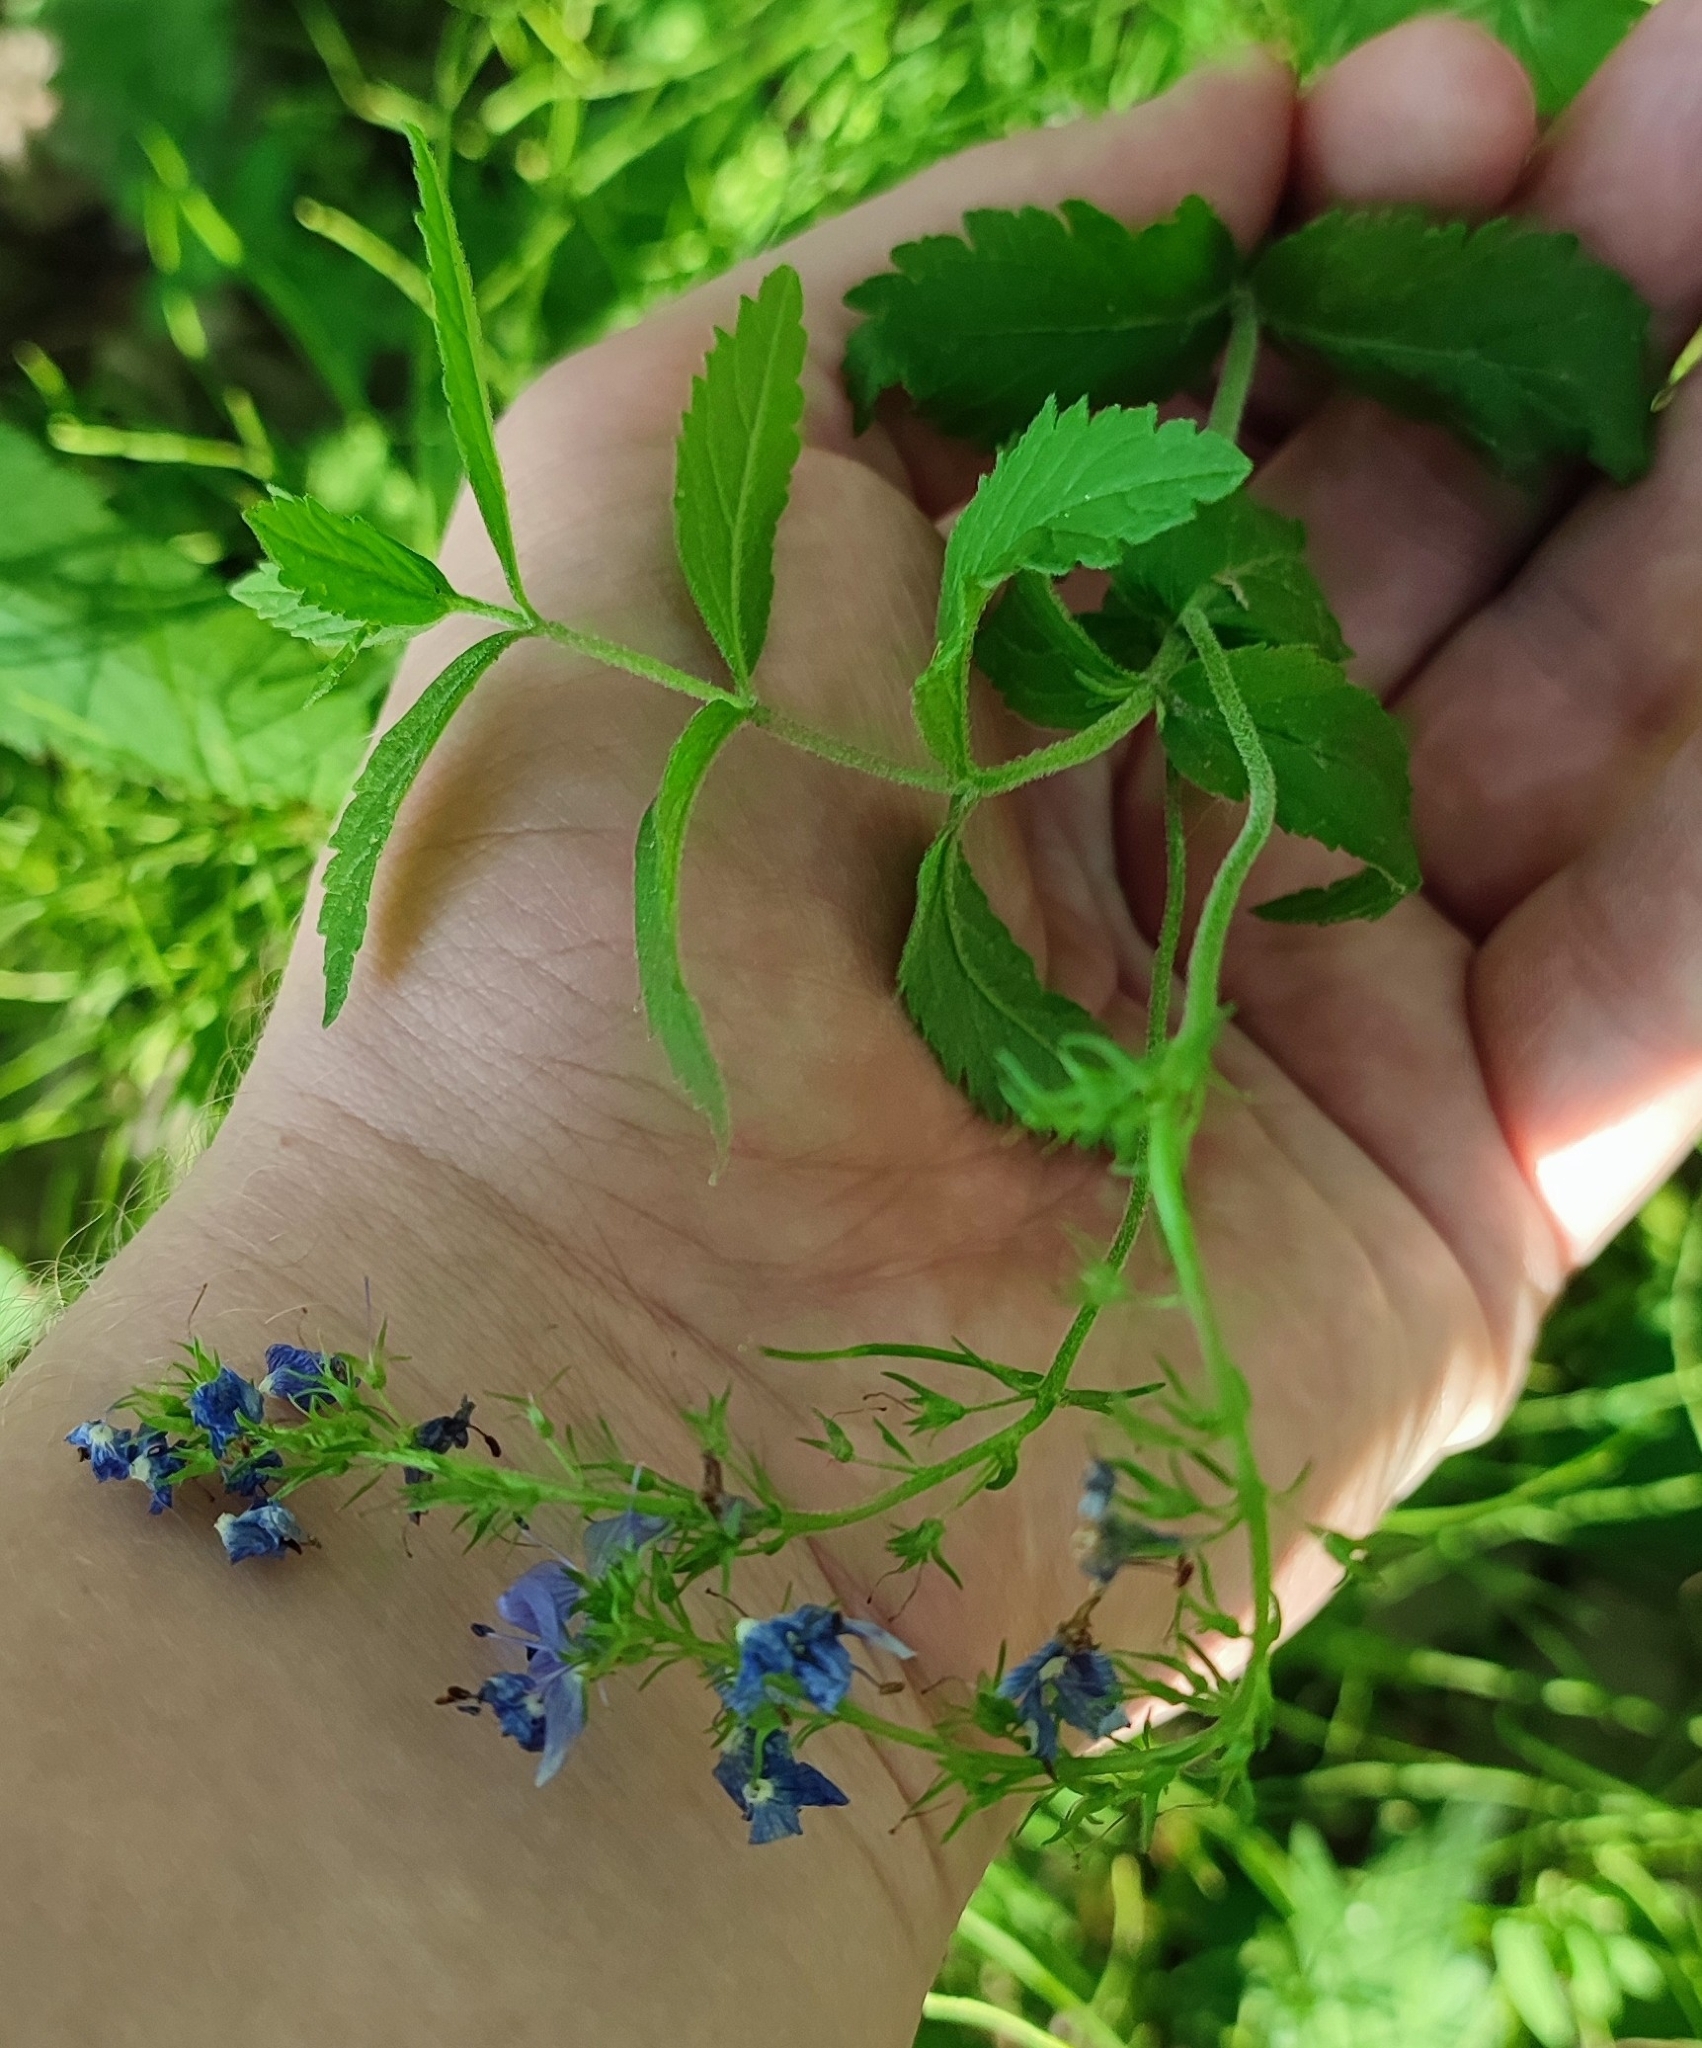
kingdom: Plantae
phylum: Tracheophyta
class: Magnoliopsida
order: Lamiales
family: Plantaginaceae
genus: Veronica
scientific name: Veronica teucrium
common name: Large speedwell
